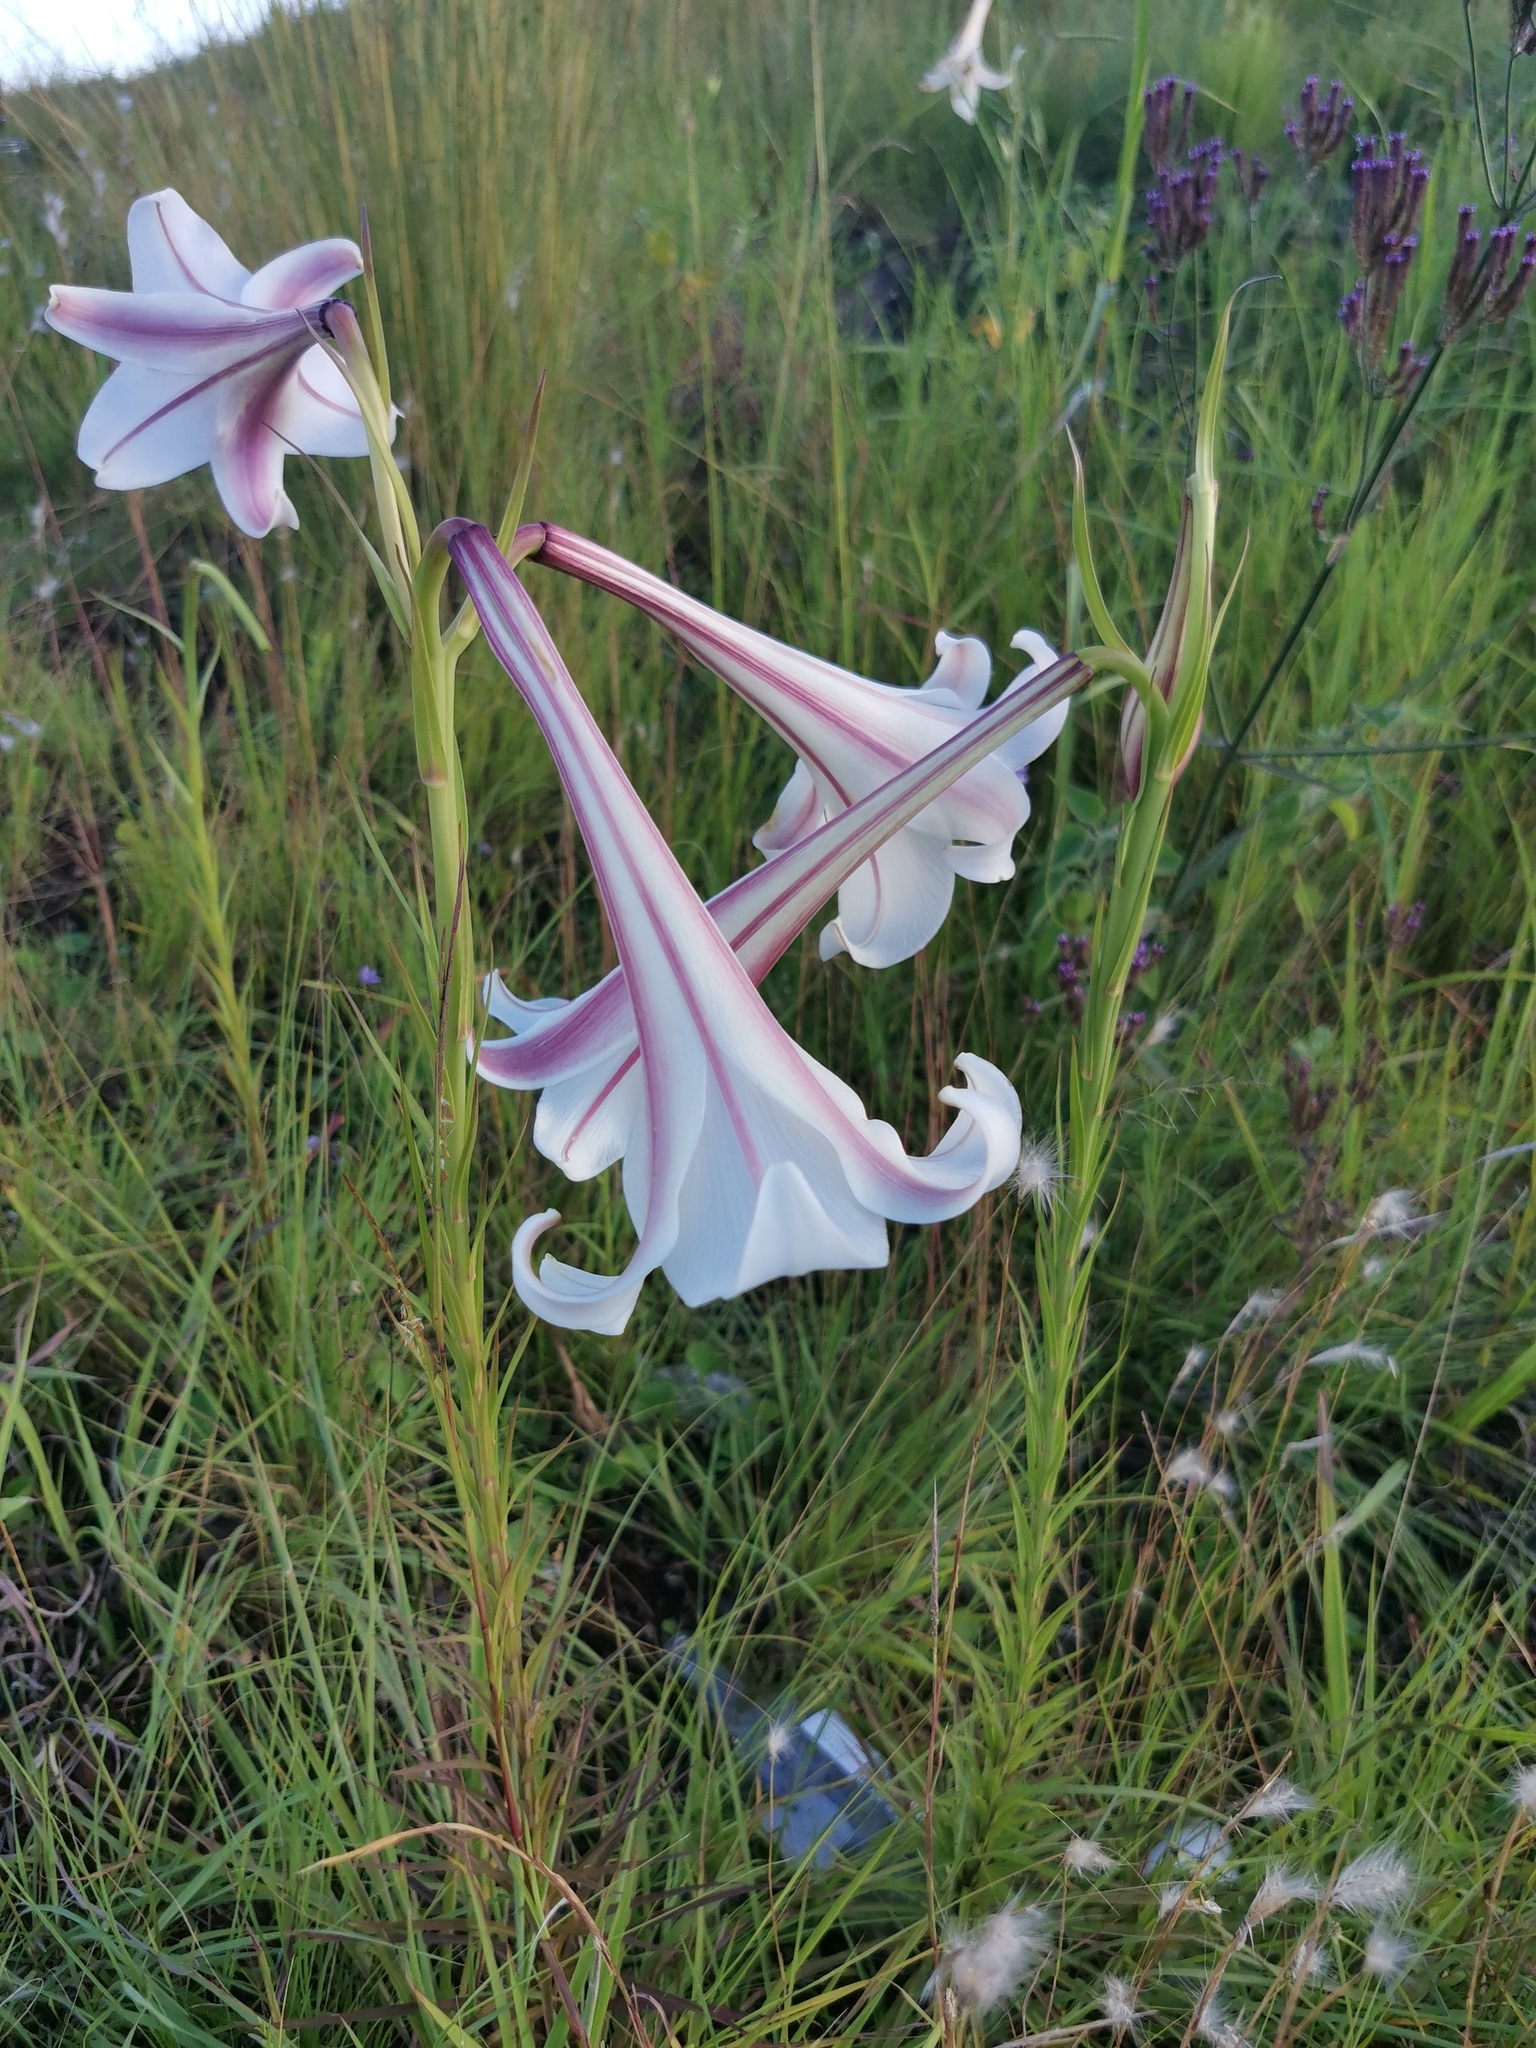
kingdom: Plantae
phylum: Tracheophyta
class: Liliopsida
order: Liliales
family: Liliaceae
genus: Lilium
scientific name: Lilium formosanum
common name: Formosa lily
